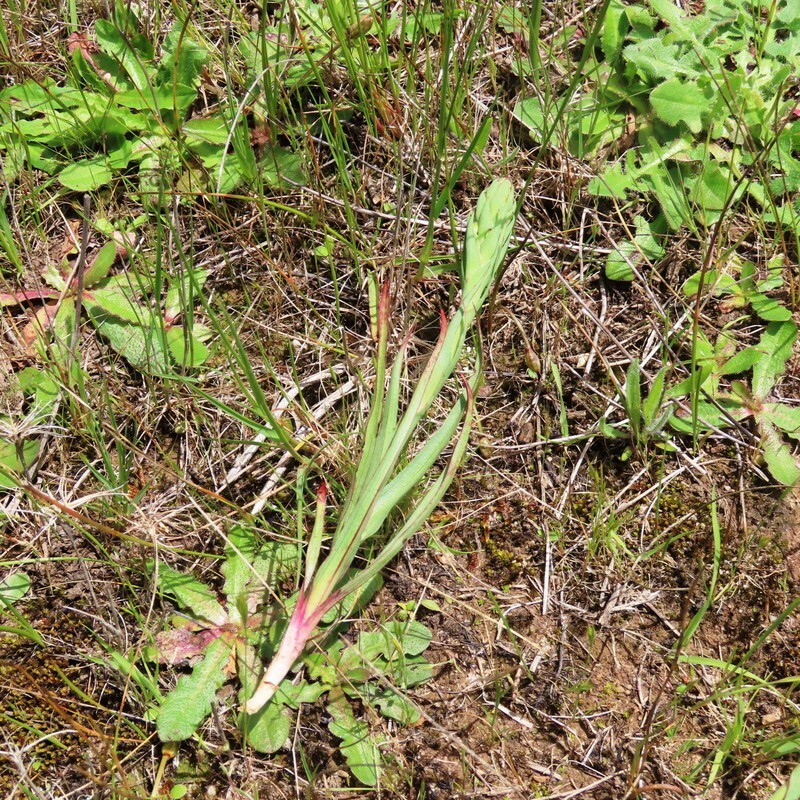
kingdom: Plantae
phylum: Tracheophyta
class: Liliopsida
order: Asparagales
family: Orchidaceae
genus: Disa
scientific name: Disa bracteata
